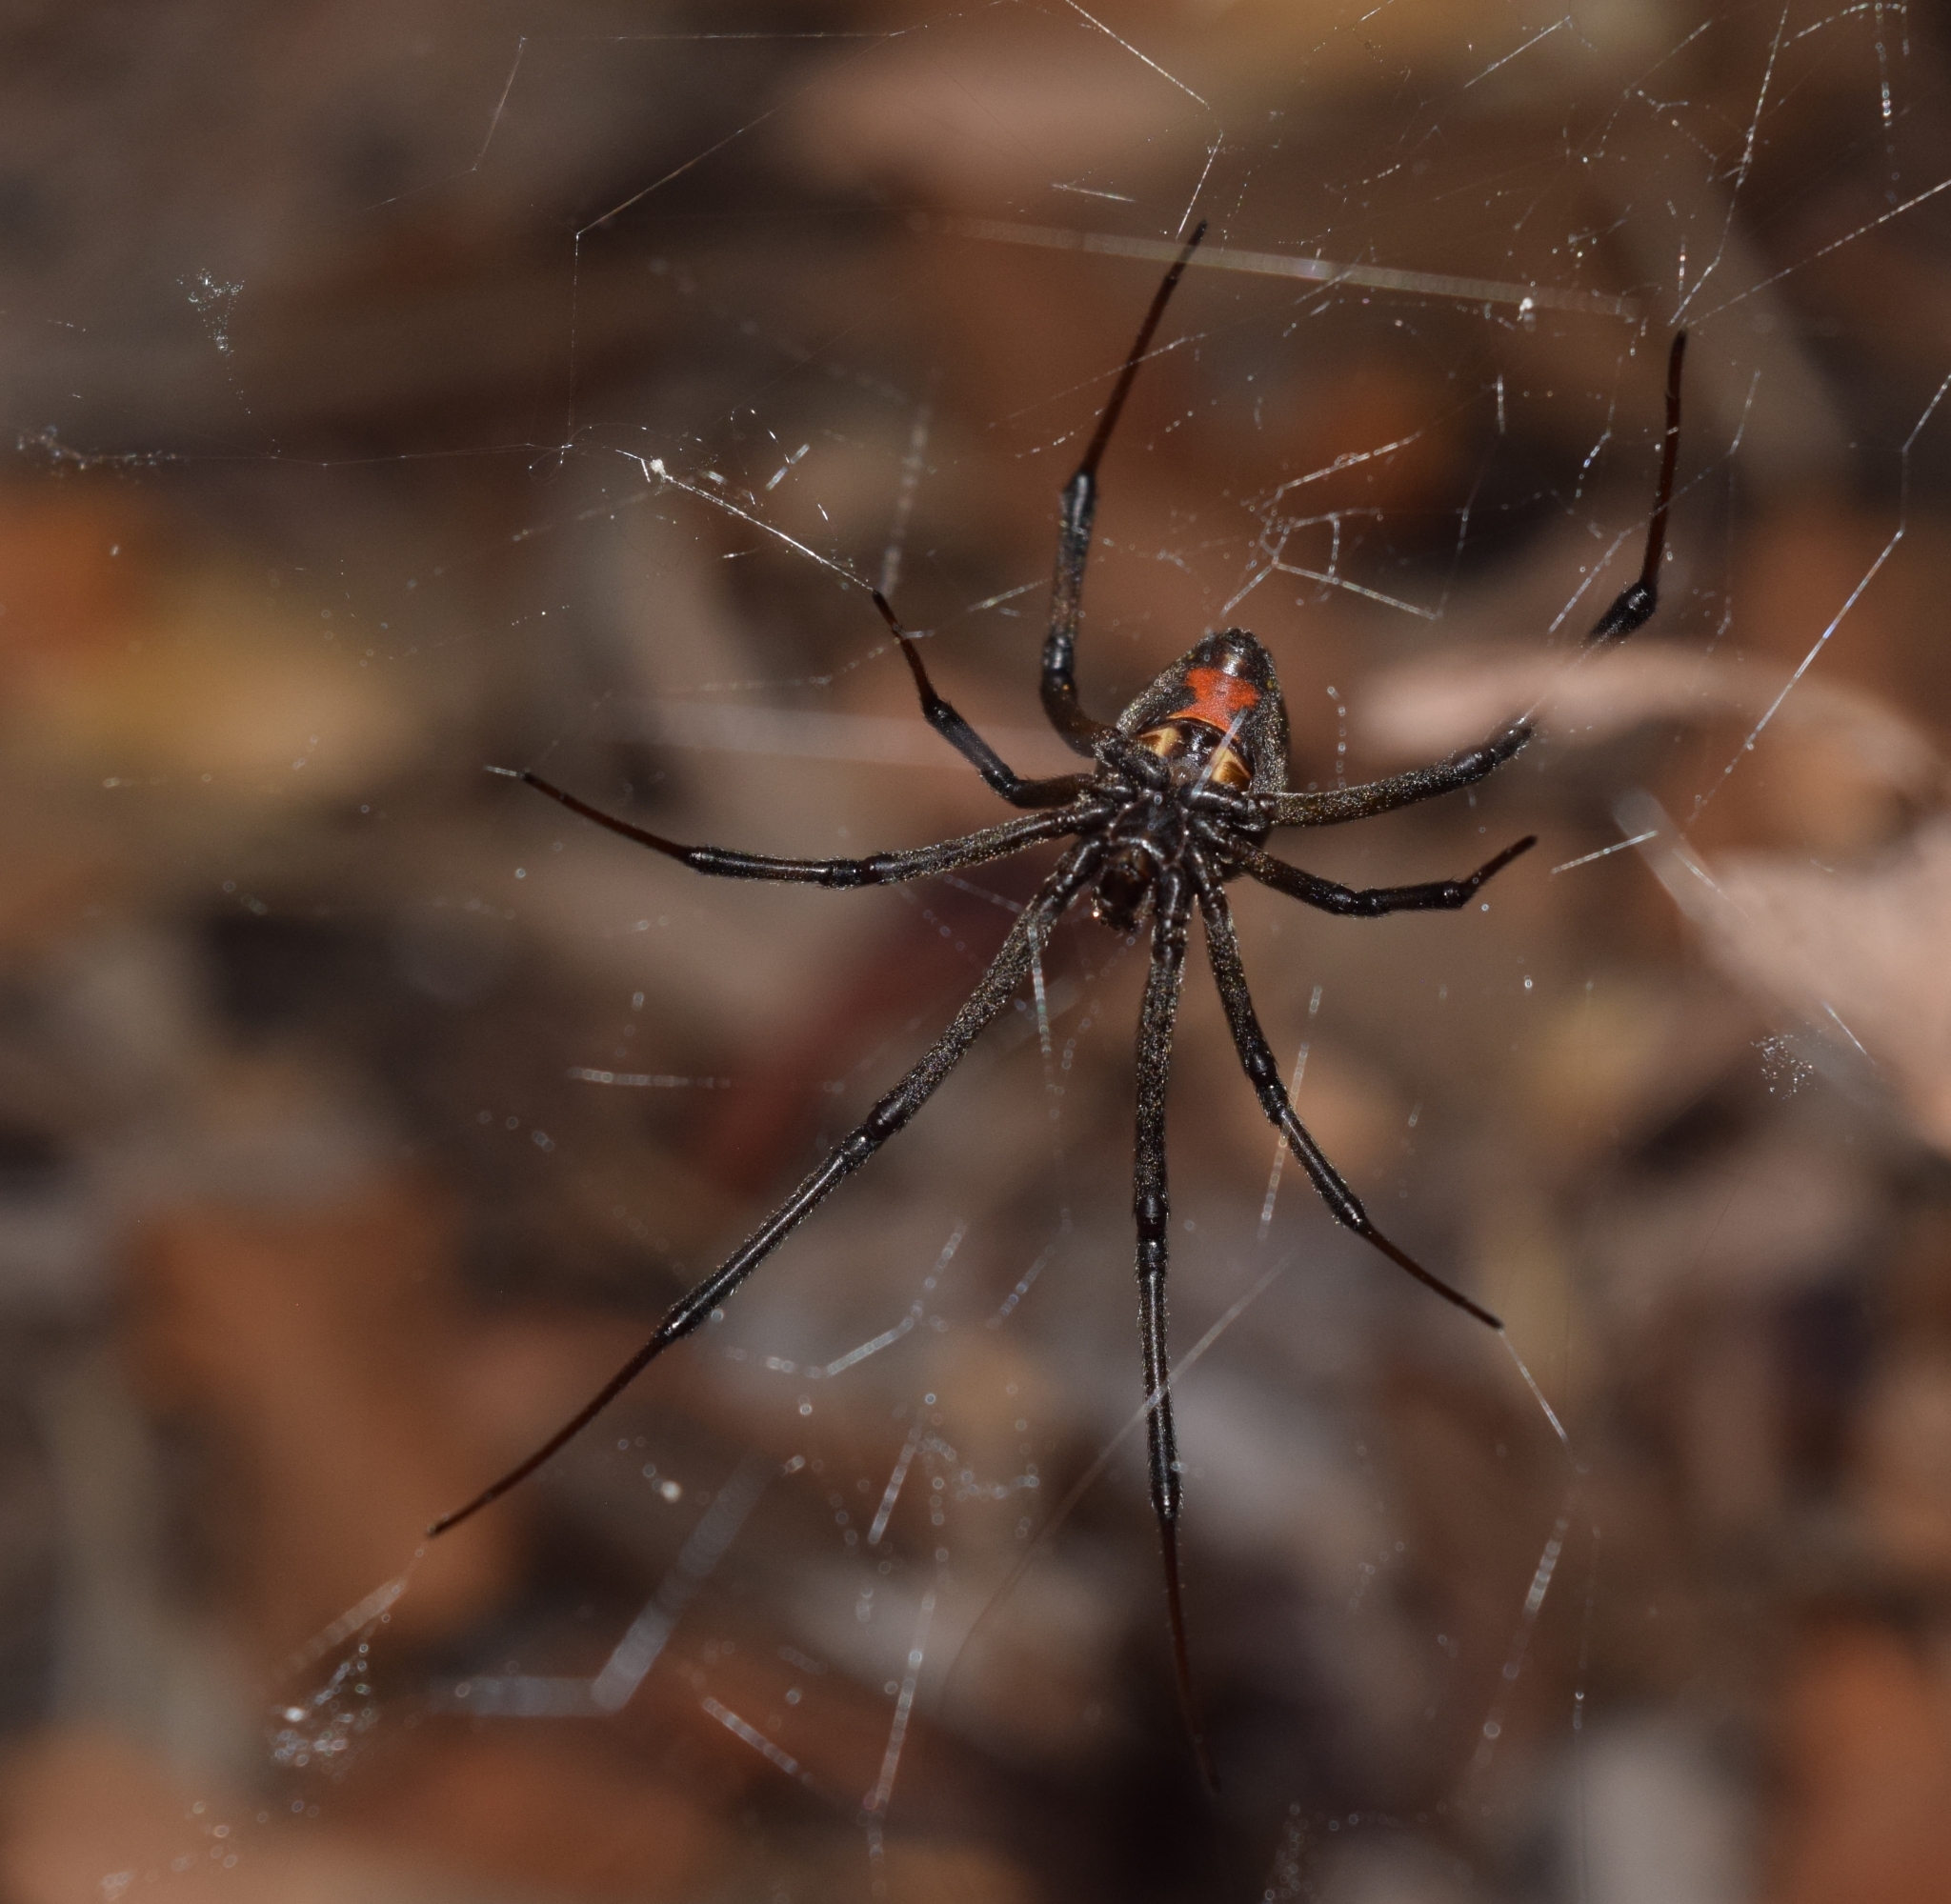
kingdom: Animalia
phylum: Arthropoda
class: Arachnida
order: Araneae
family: Theridiidae
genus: Latrodectus
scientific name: Latrodectus geometricus
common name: Brown widow spider
